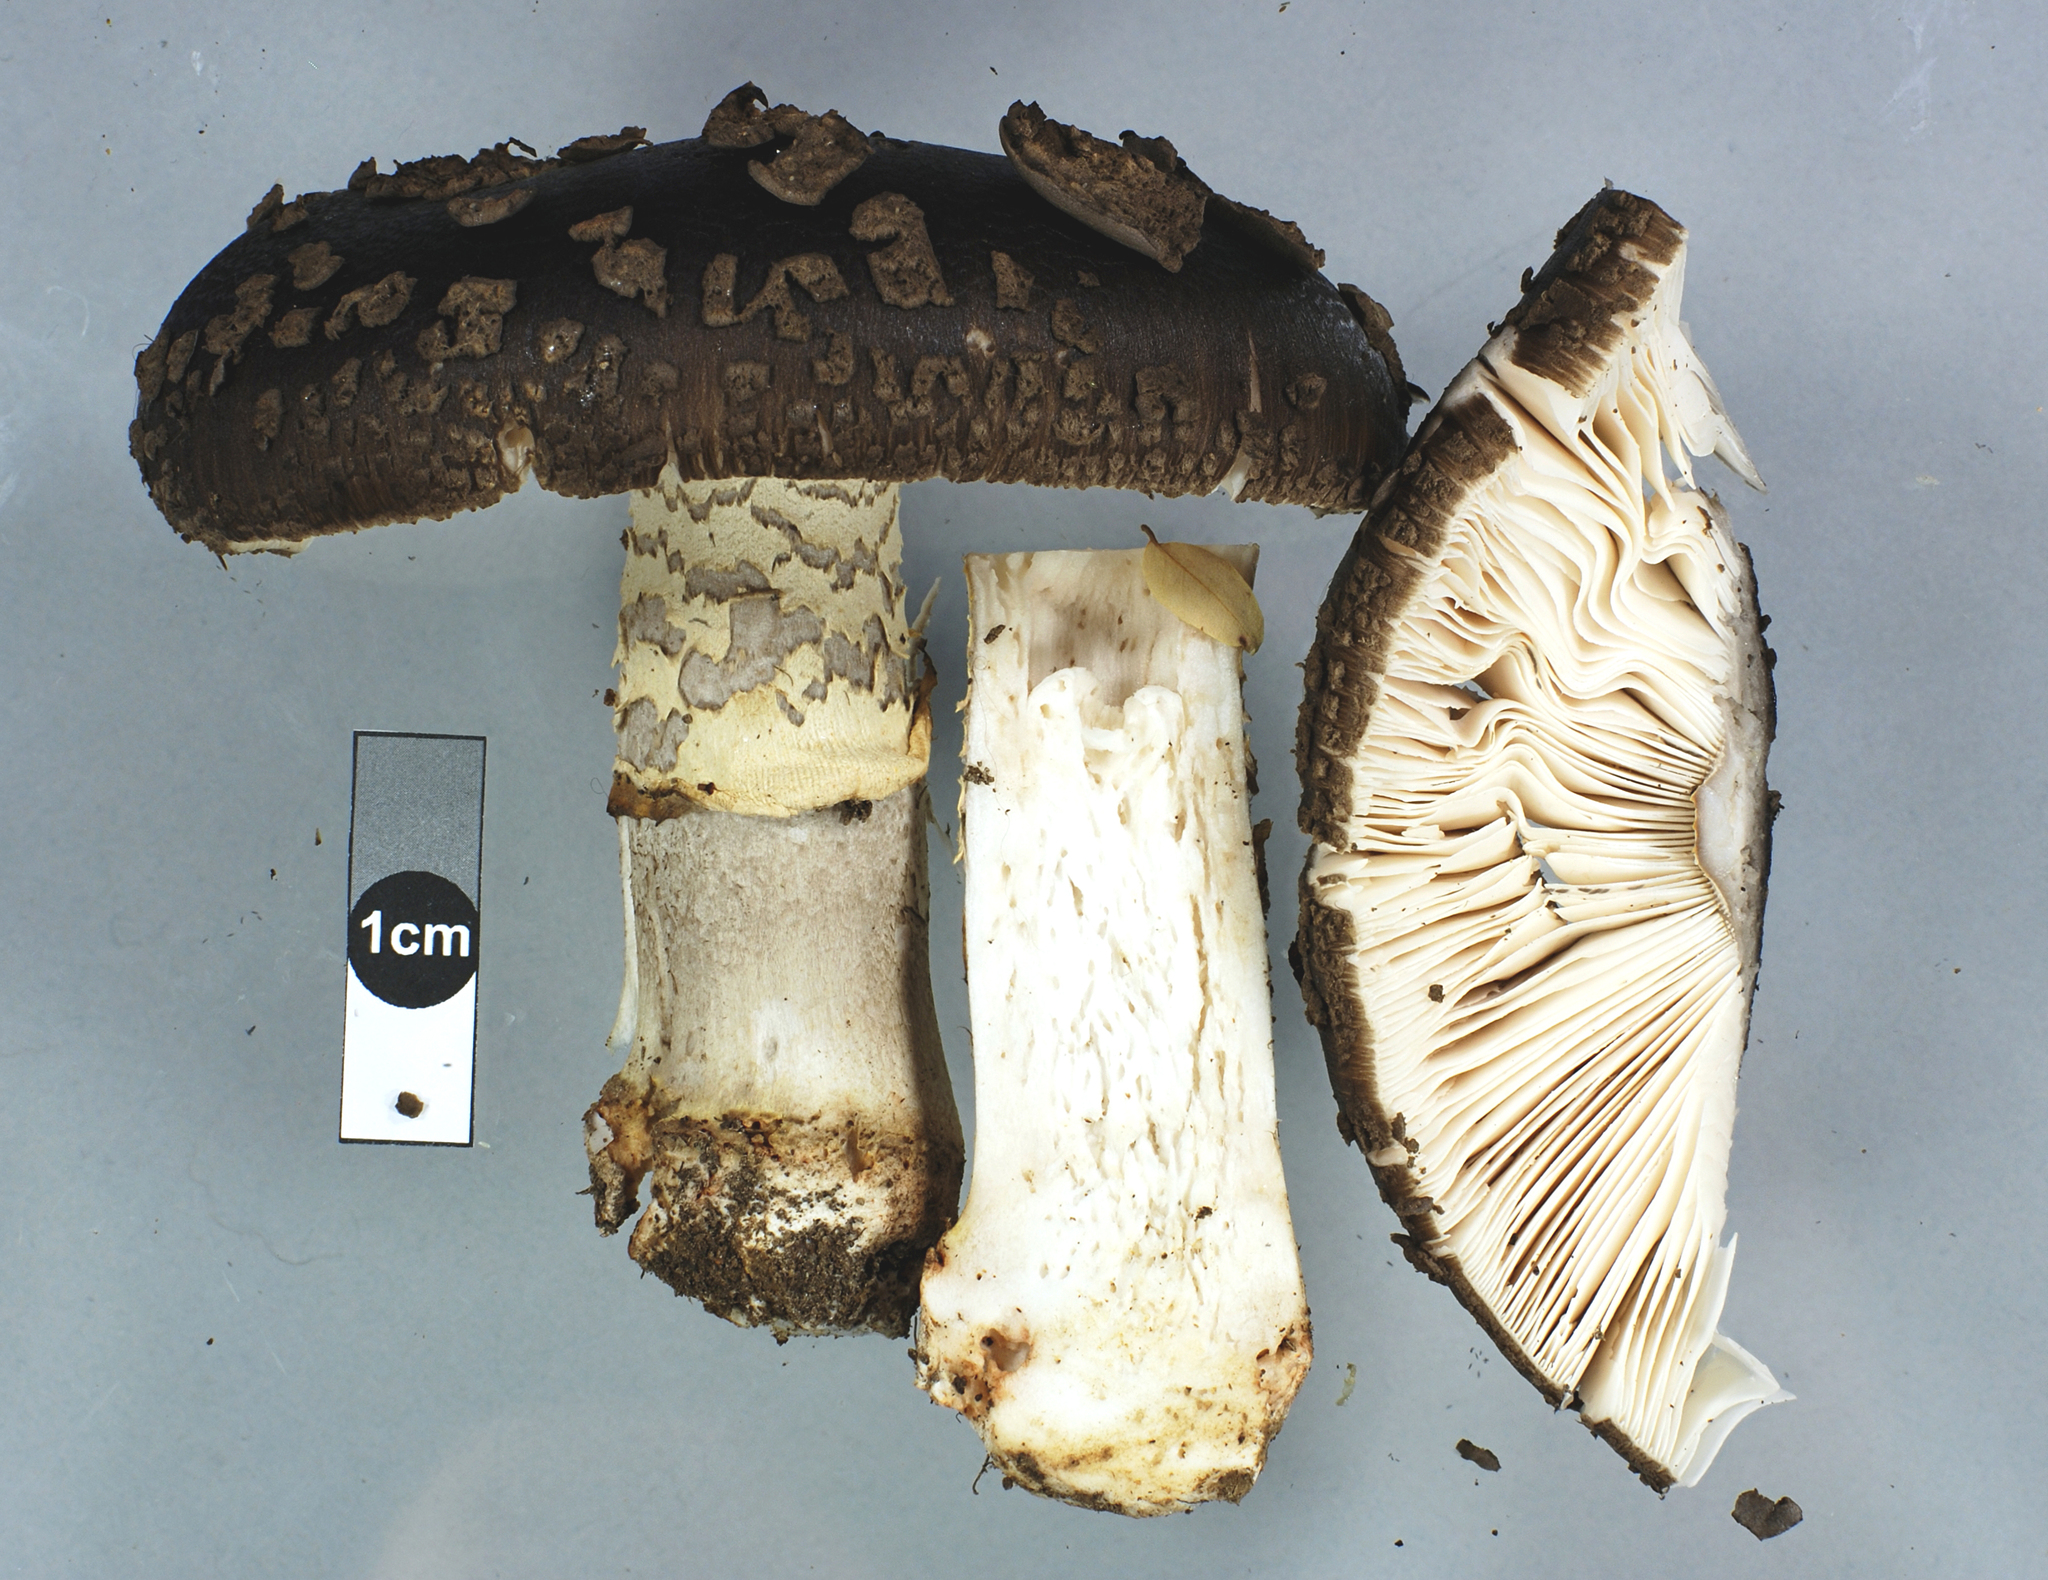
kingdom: Fungi
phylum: Basidiomycota
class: Agaricomycetes
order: Agaricales
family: Amanitaceae
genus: Amanita
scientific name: Amanita nothofagi
